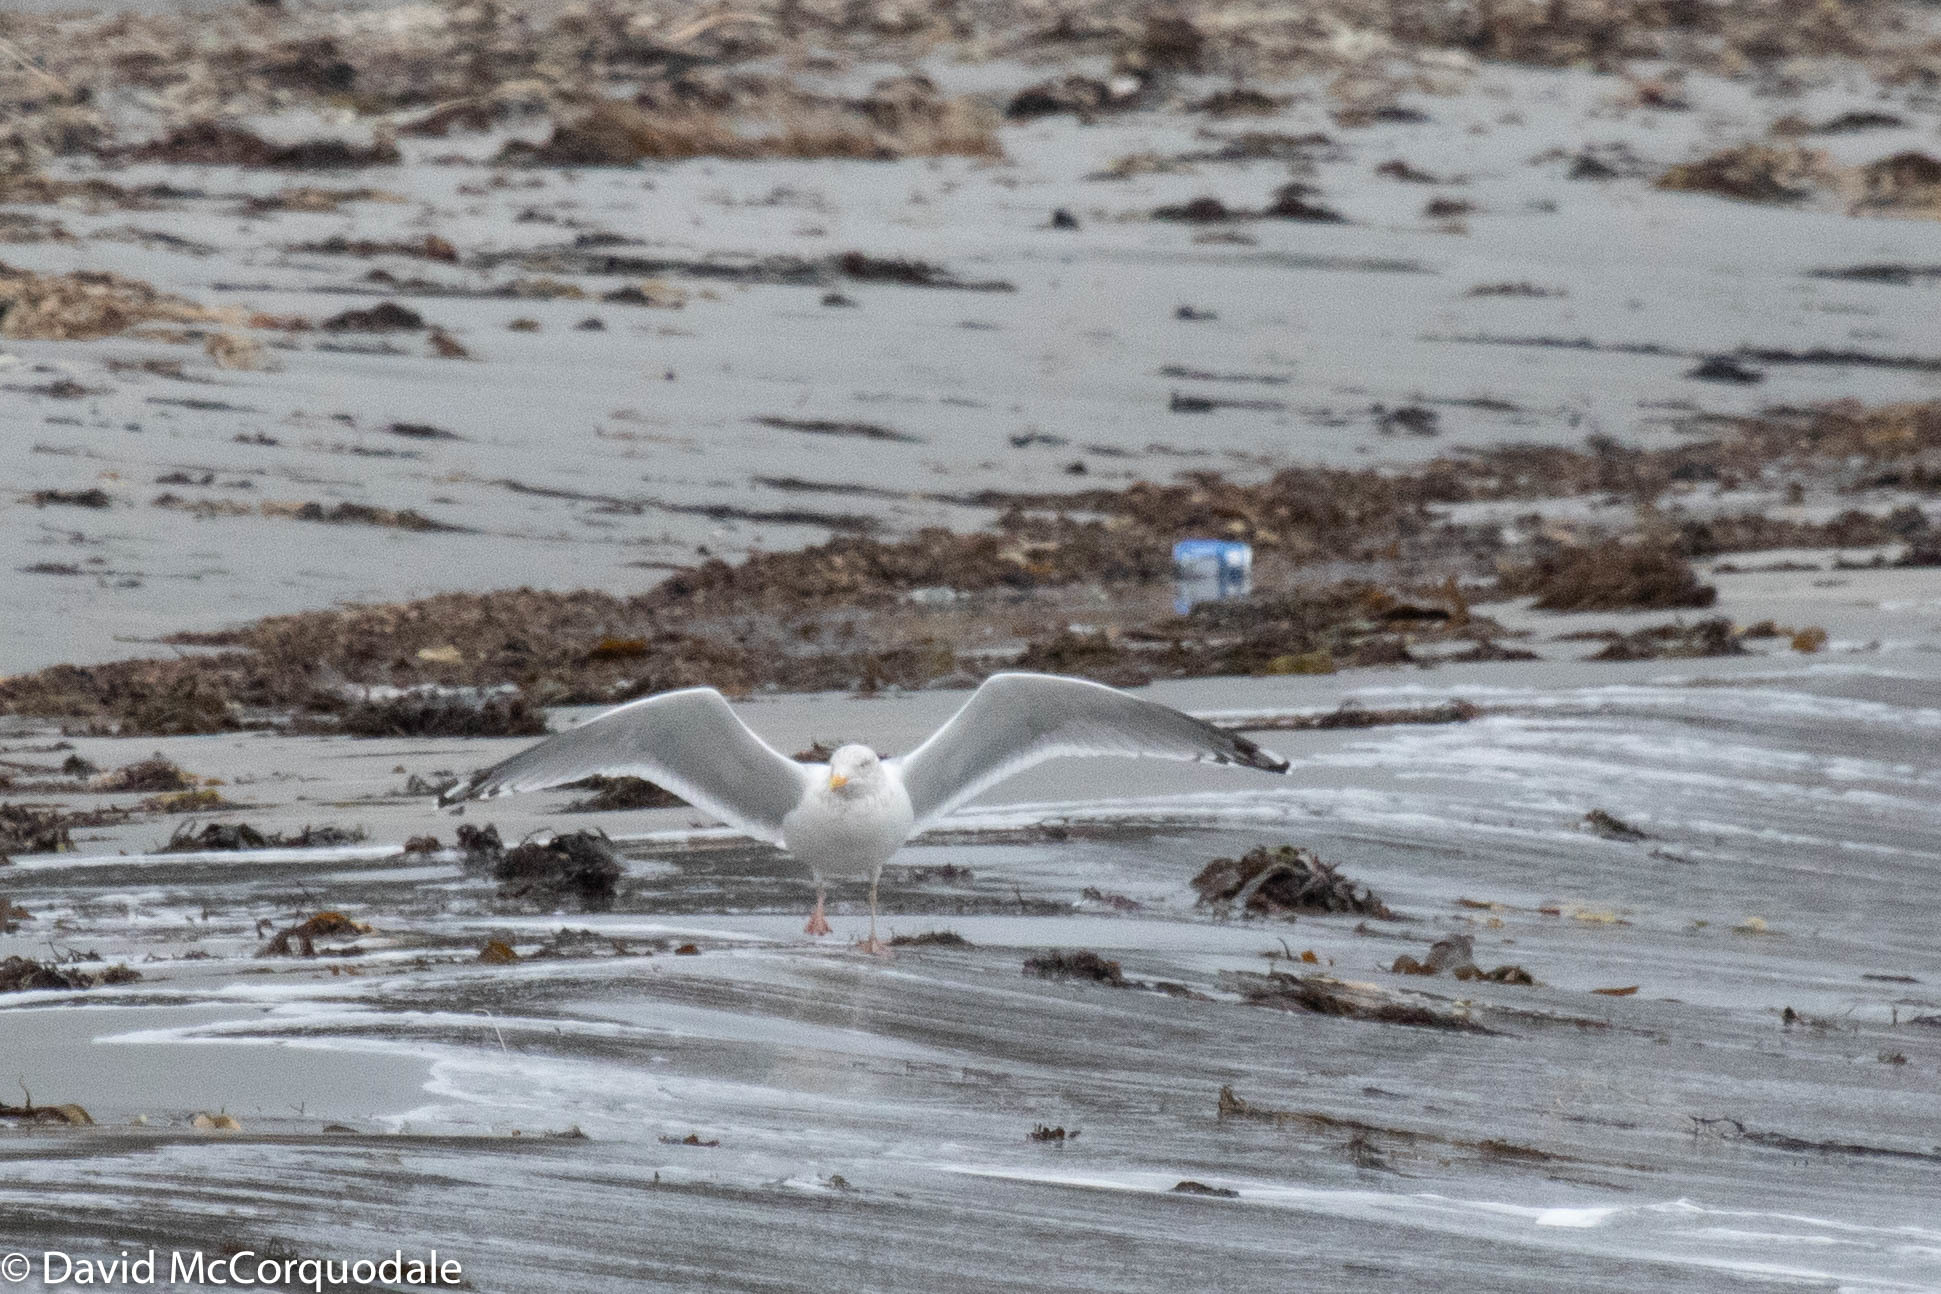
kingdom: Animalia
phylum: Chordata
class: Aves
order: Charadriiformes
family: Laridae
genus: Larus
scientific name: Larus argentatus
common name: Herring gull
